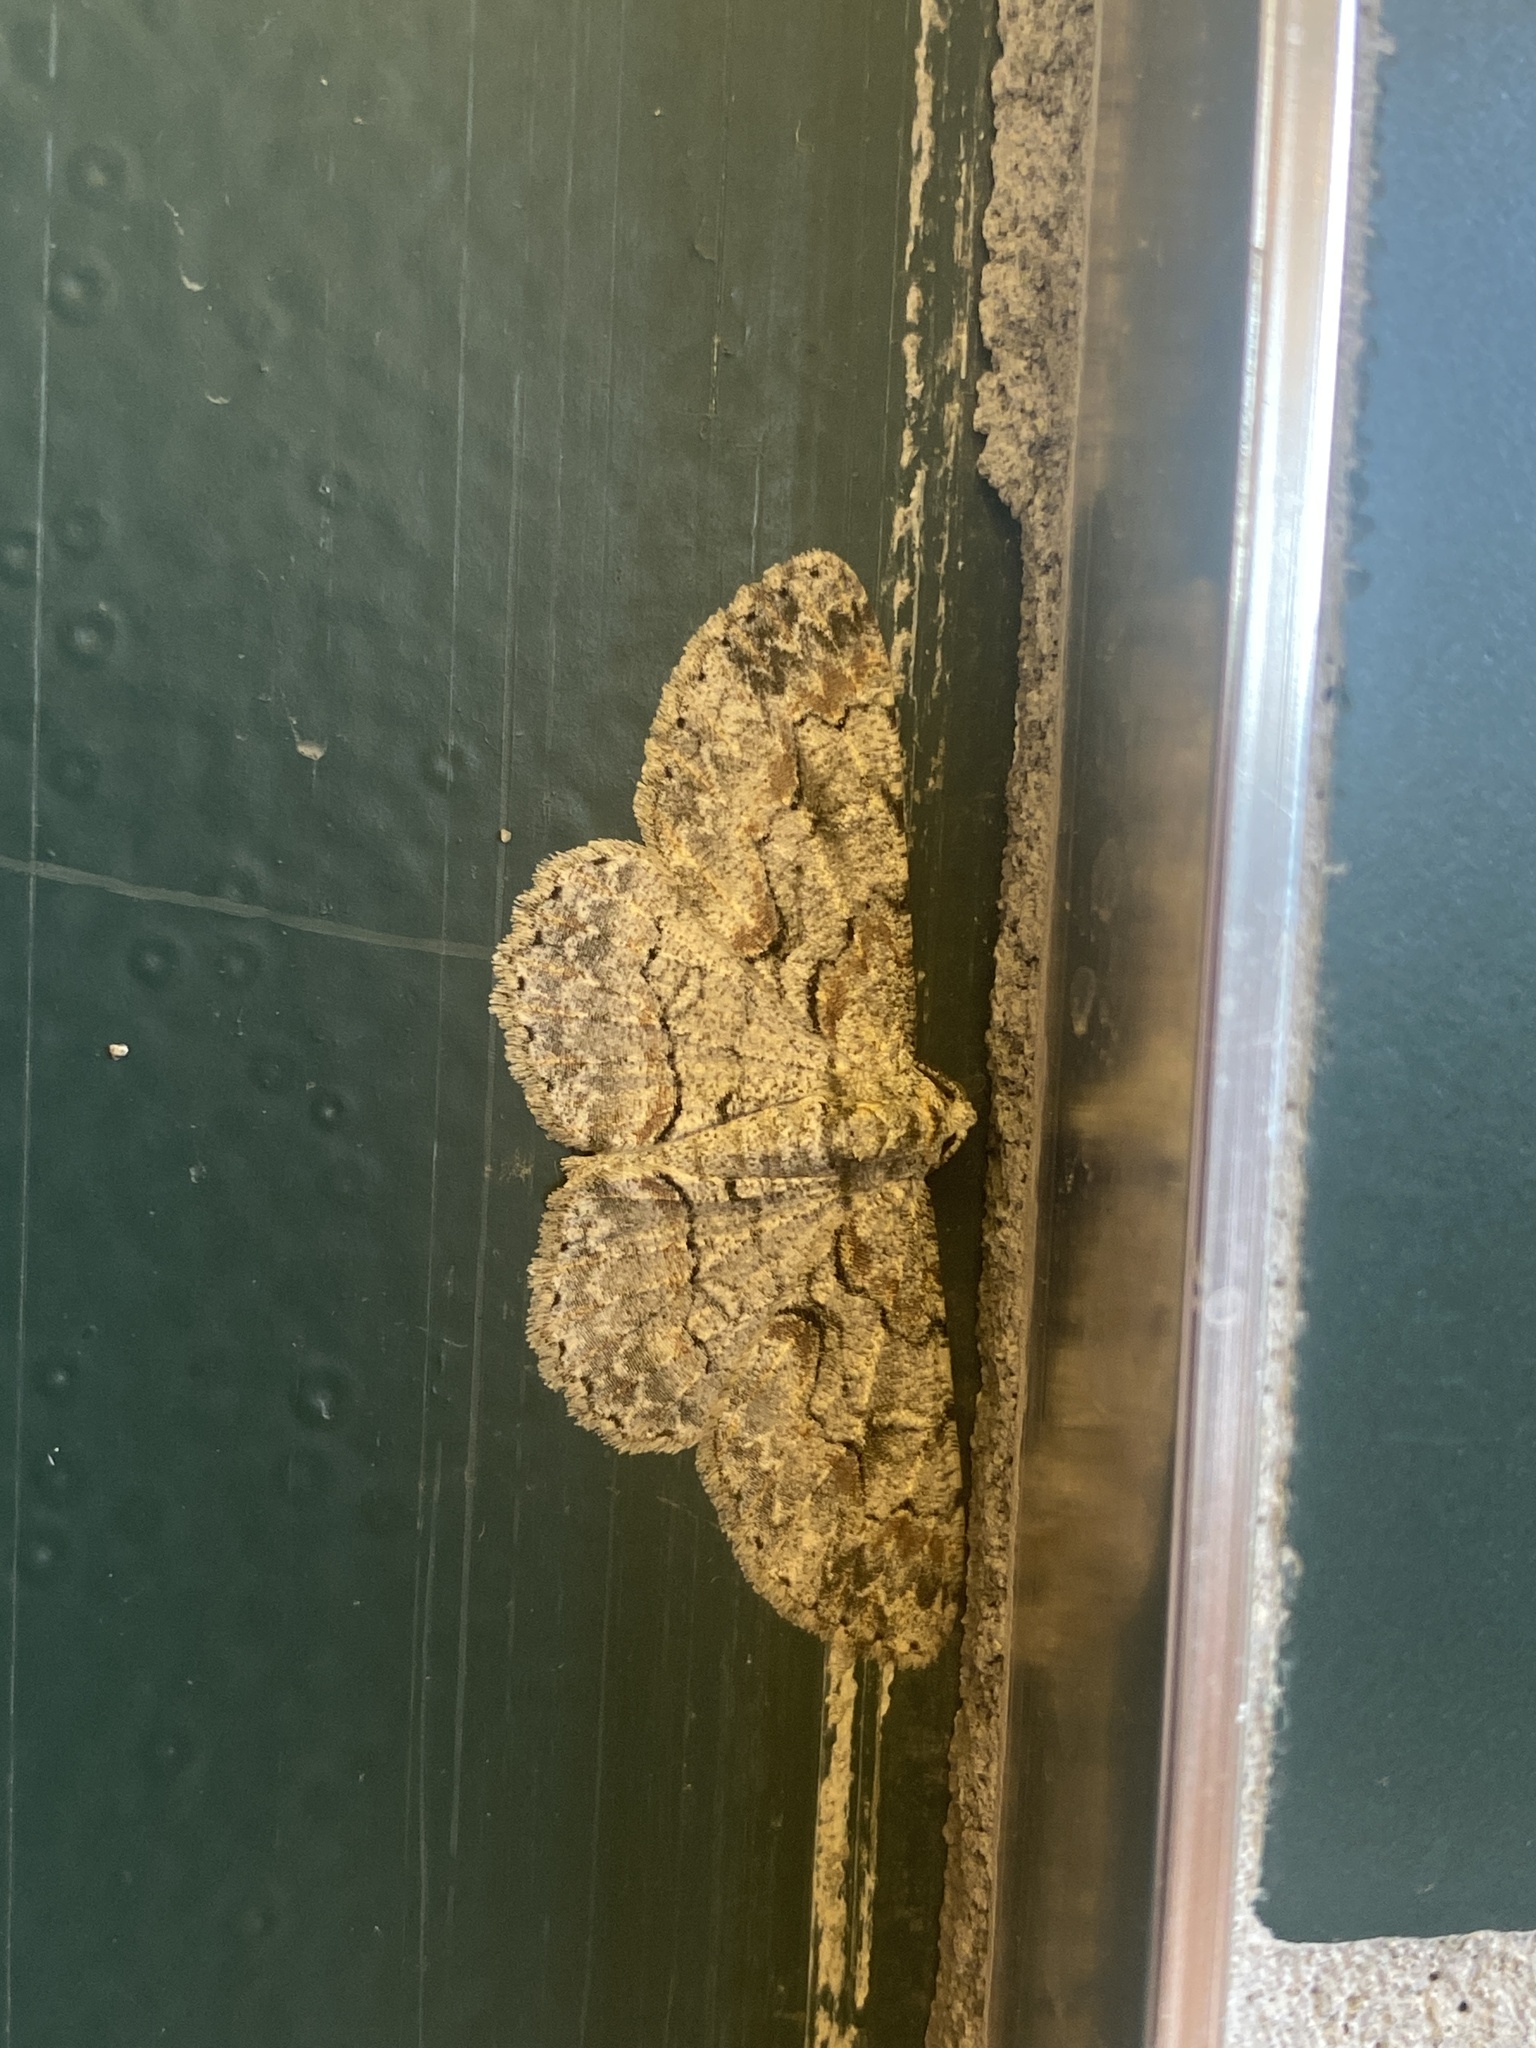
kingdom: Animalia
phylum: Arthropoda
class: Insecta
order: Lepidoptera
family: Geometridae
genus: Iridopsis
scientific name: Iridopsis defectaria
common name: Brown-shaded gray
